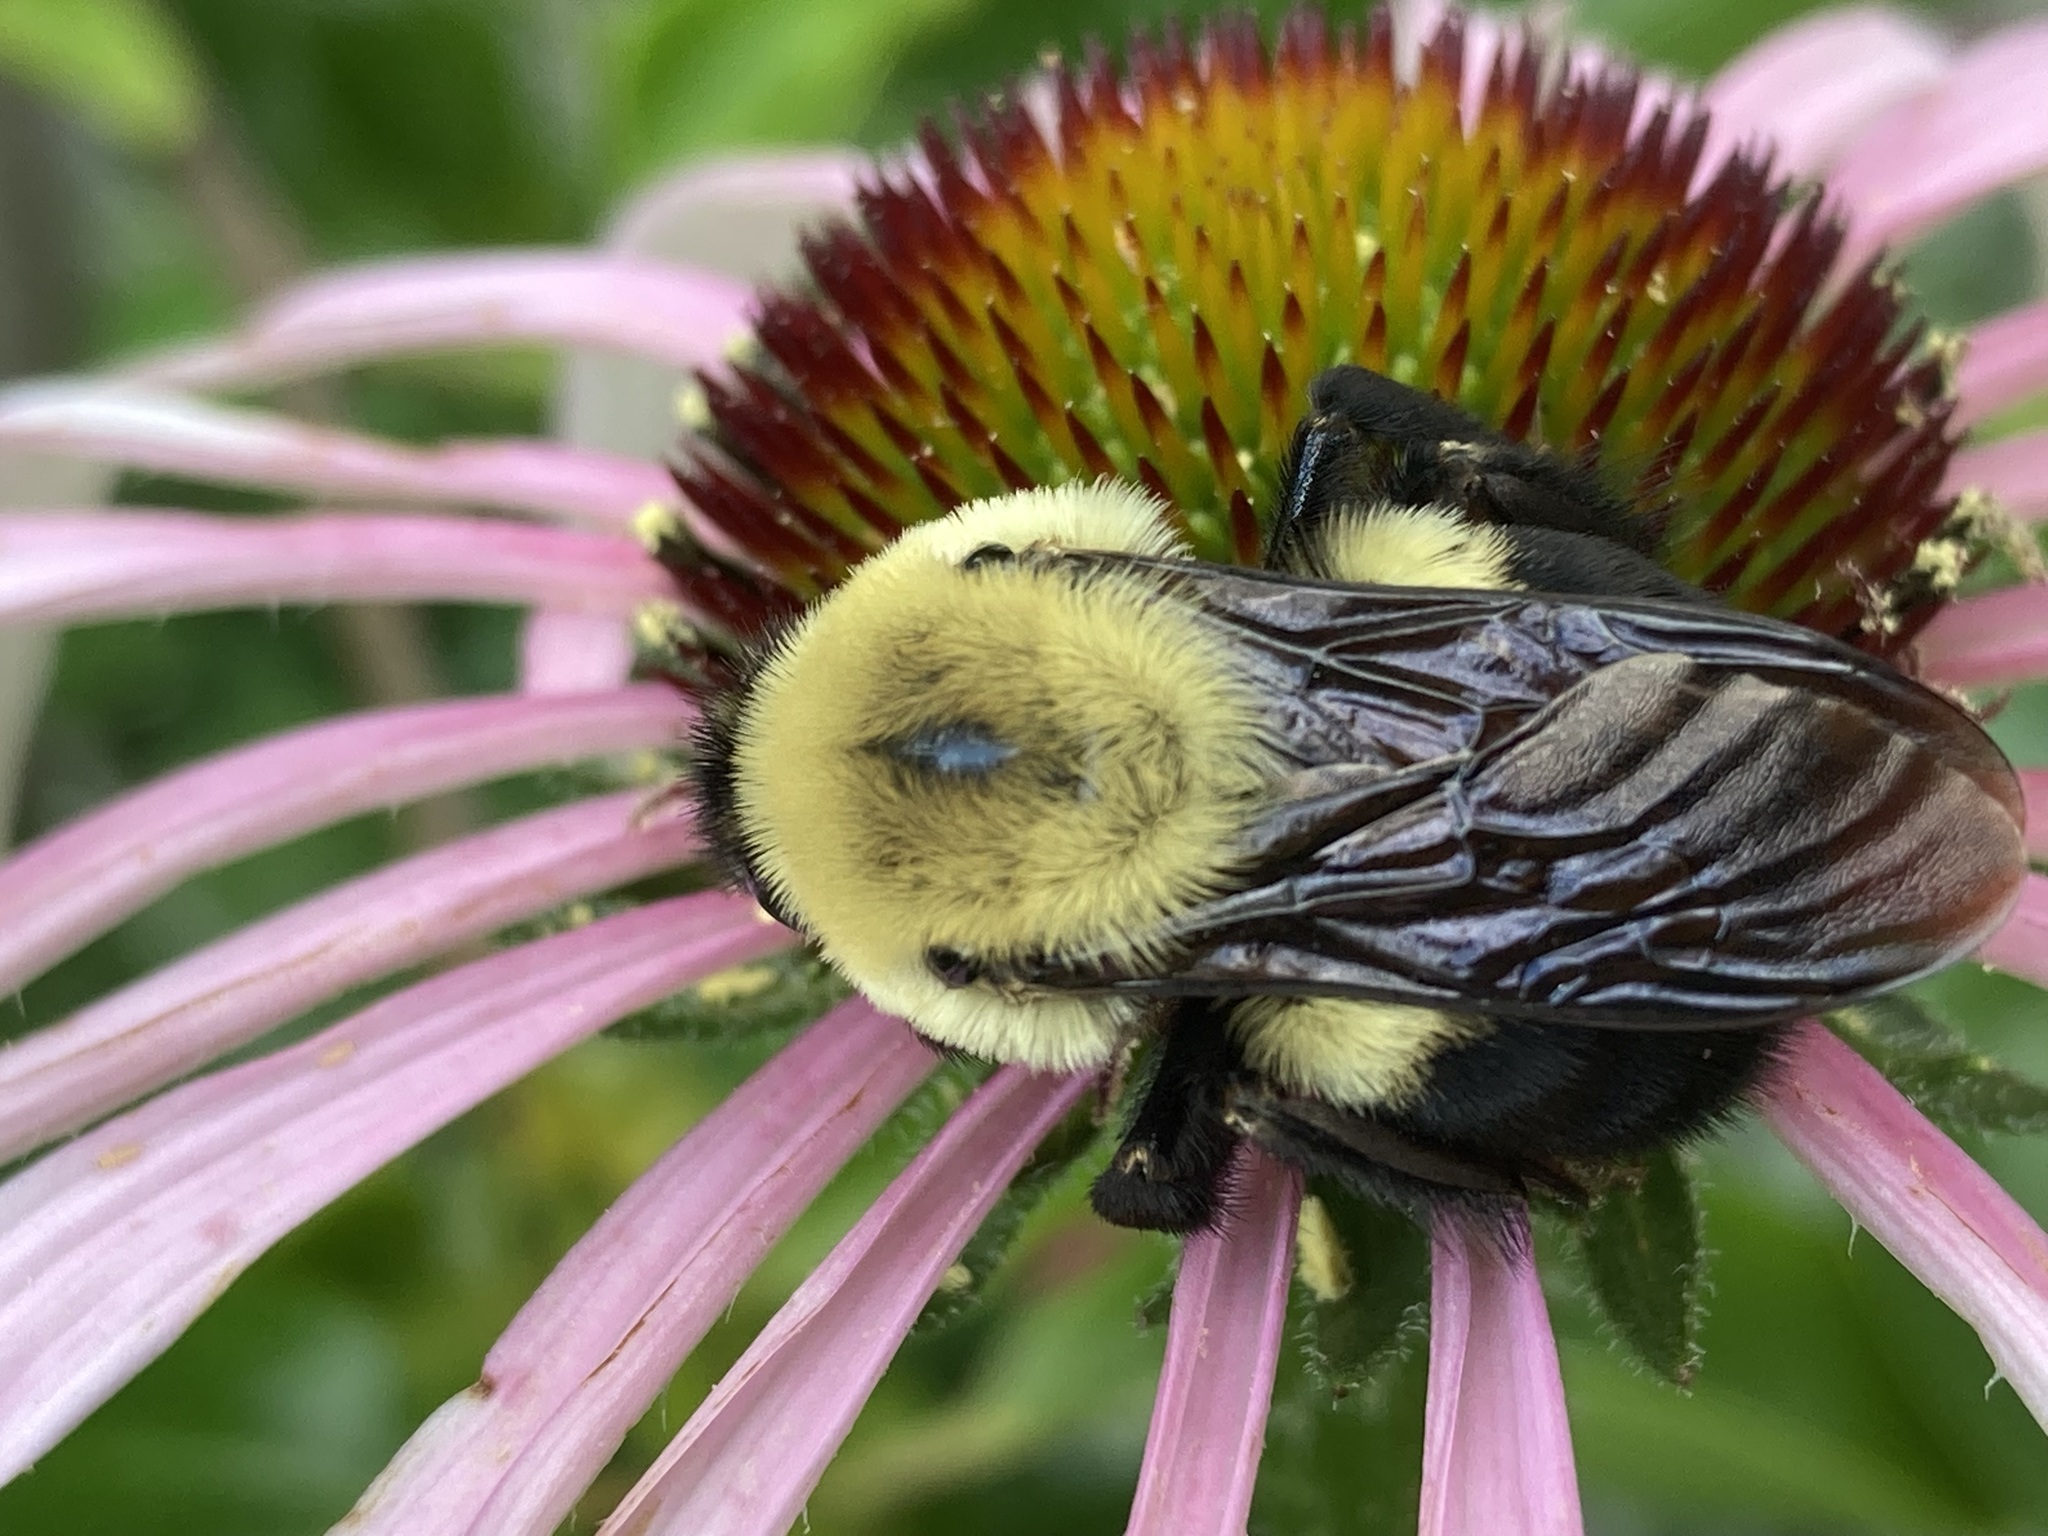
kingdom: Animalia
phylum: Arthropoda
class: Insecta
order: Hymenoptera
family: Apidae
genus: Bombus
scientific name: Bombus griseocollis
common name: Brown-belted bumble bee
